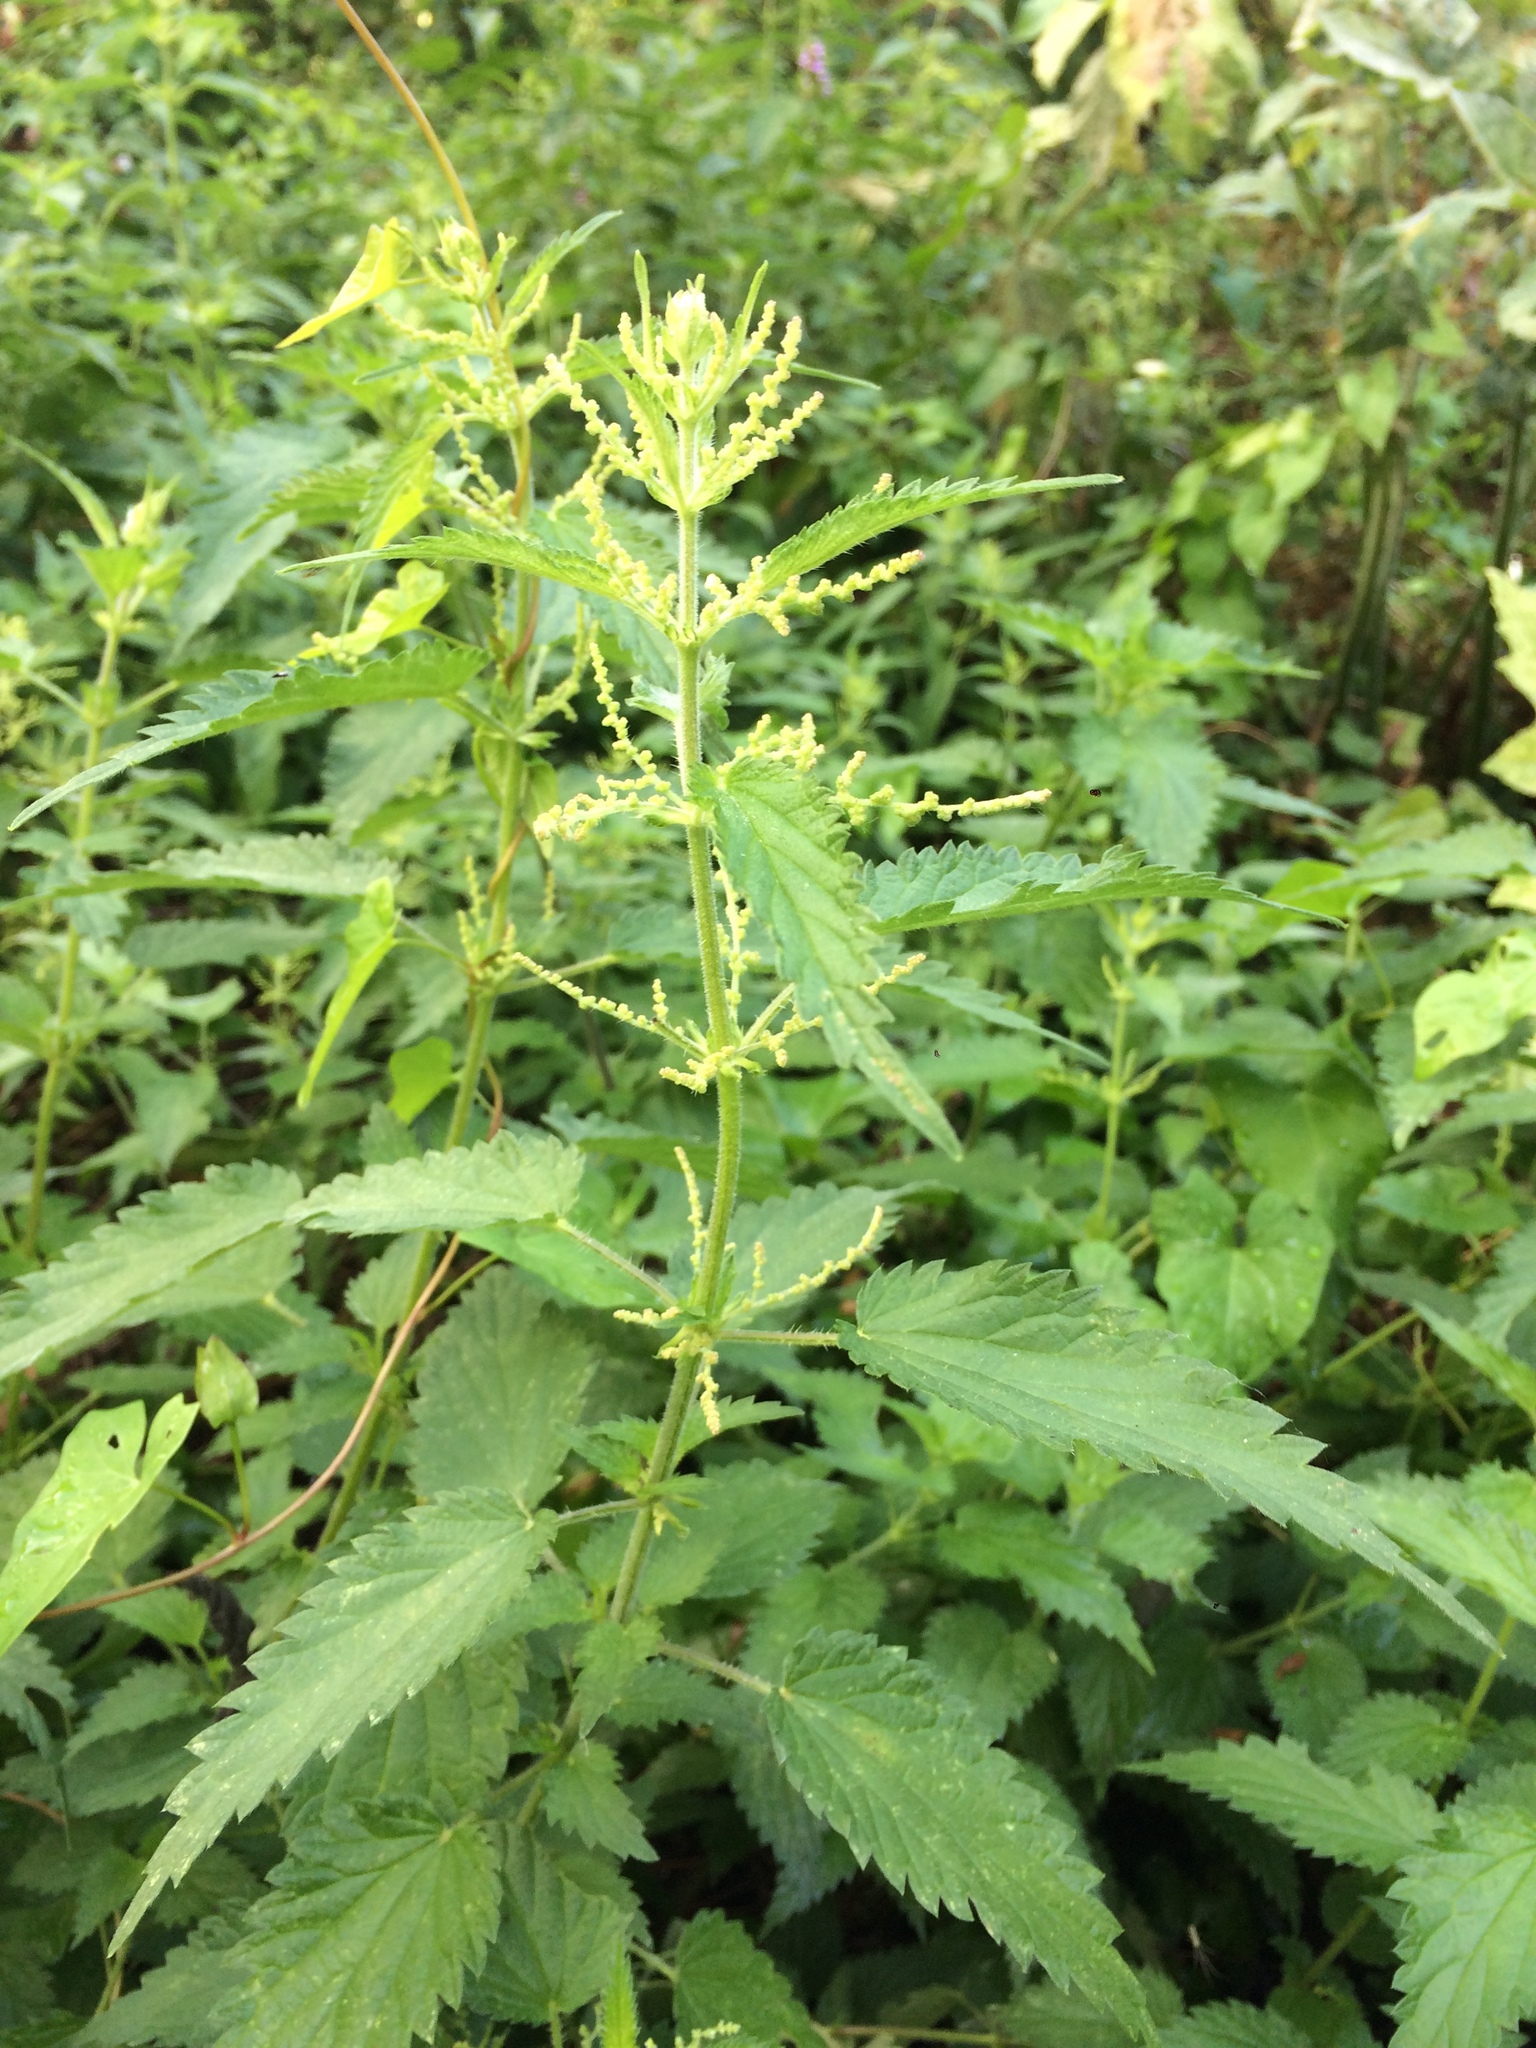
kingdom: Plantae
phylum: Tracheophyta
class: Magnoliopsida
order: Rosales
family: Urticaceae
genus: Urtica
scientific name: Urtica dioica
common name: Common nettle
